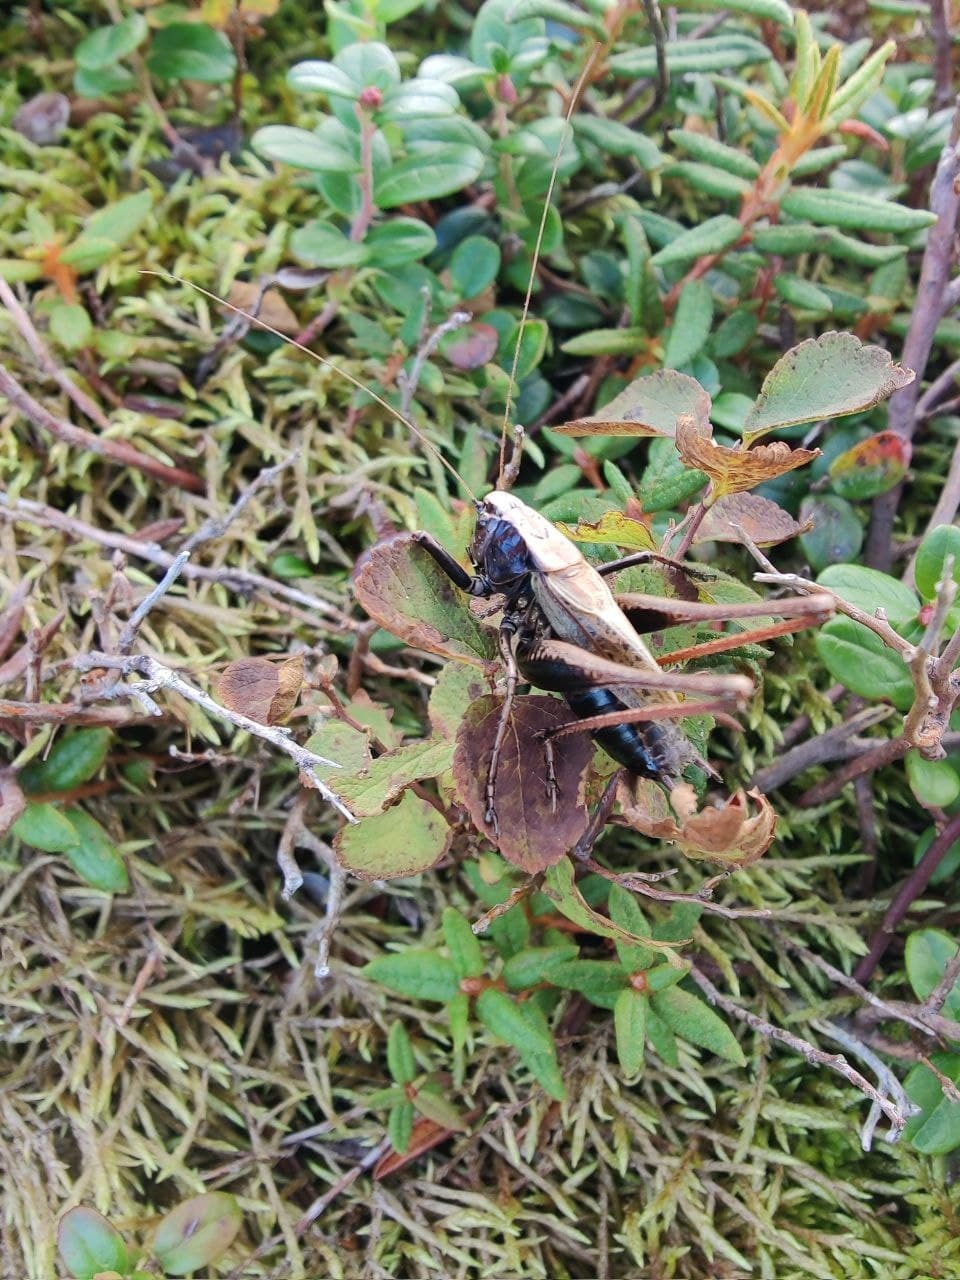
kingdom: Animalia
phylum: Arthropoda
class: Insecta
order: Orthoptera
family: Tettigoniidae
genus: Eobiana
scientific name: Eobiana japonica
